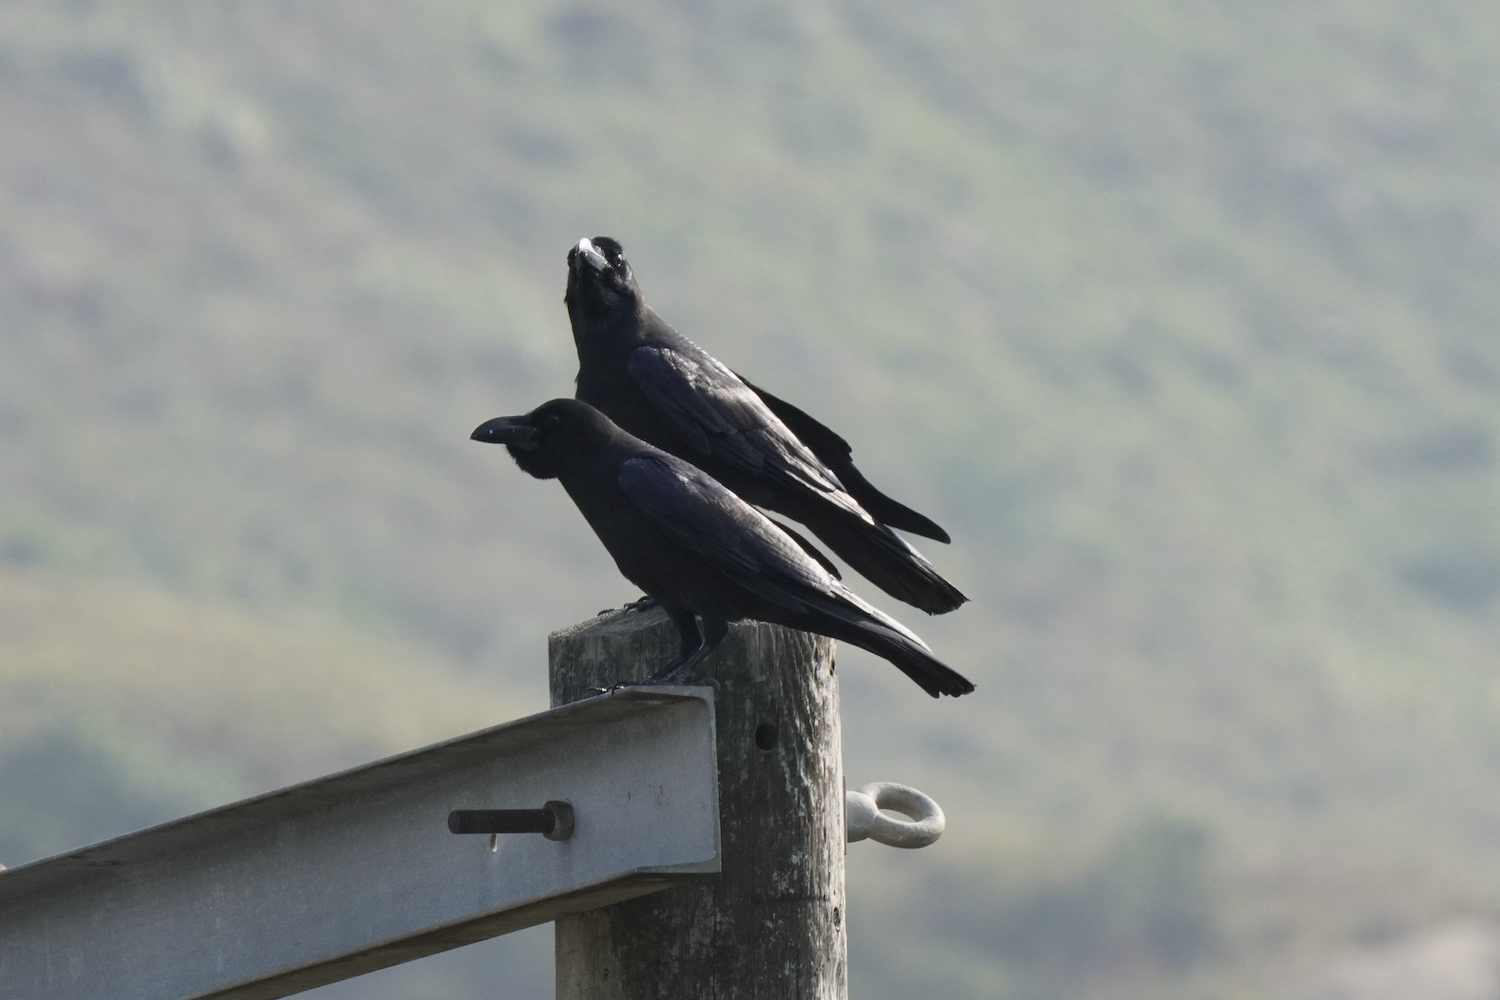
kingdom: Animalia
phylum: Chordata
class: Aves
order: Passeriformes
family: Corvidae
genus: Corvus
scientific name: Corvus macrorhynchos
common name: Large-billed crow
